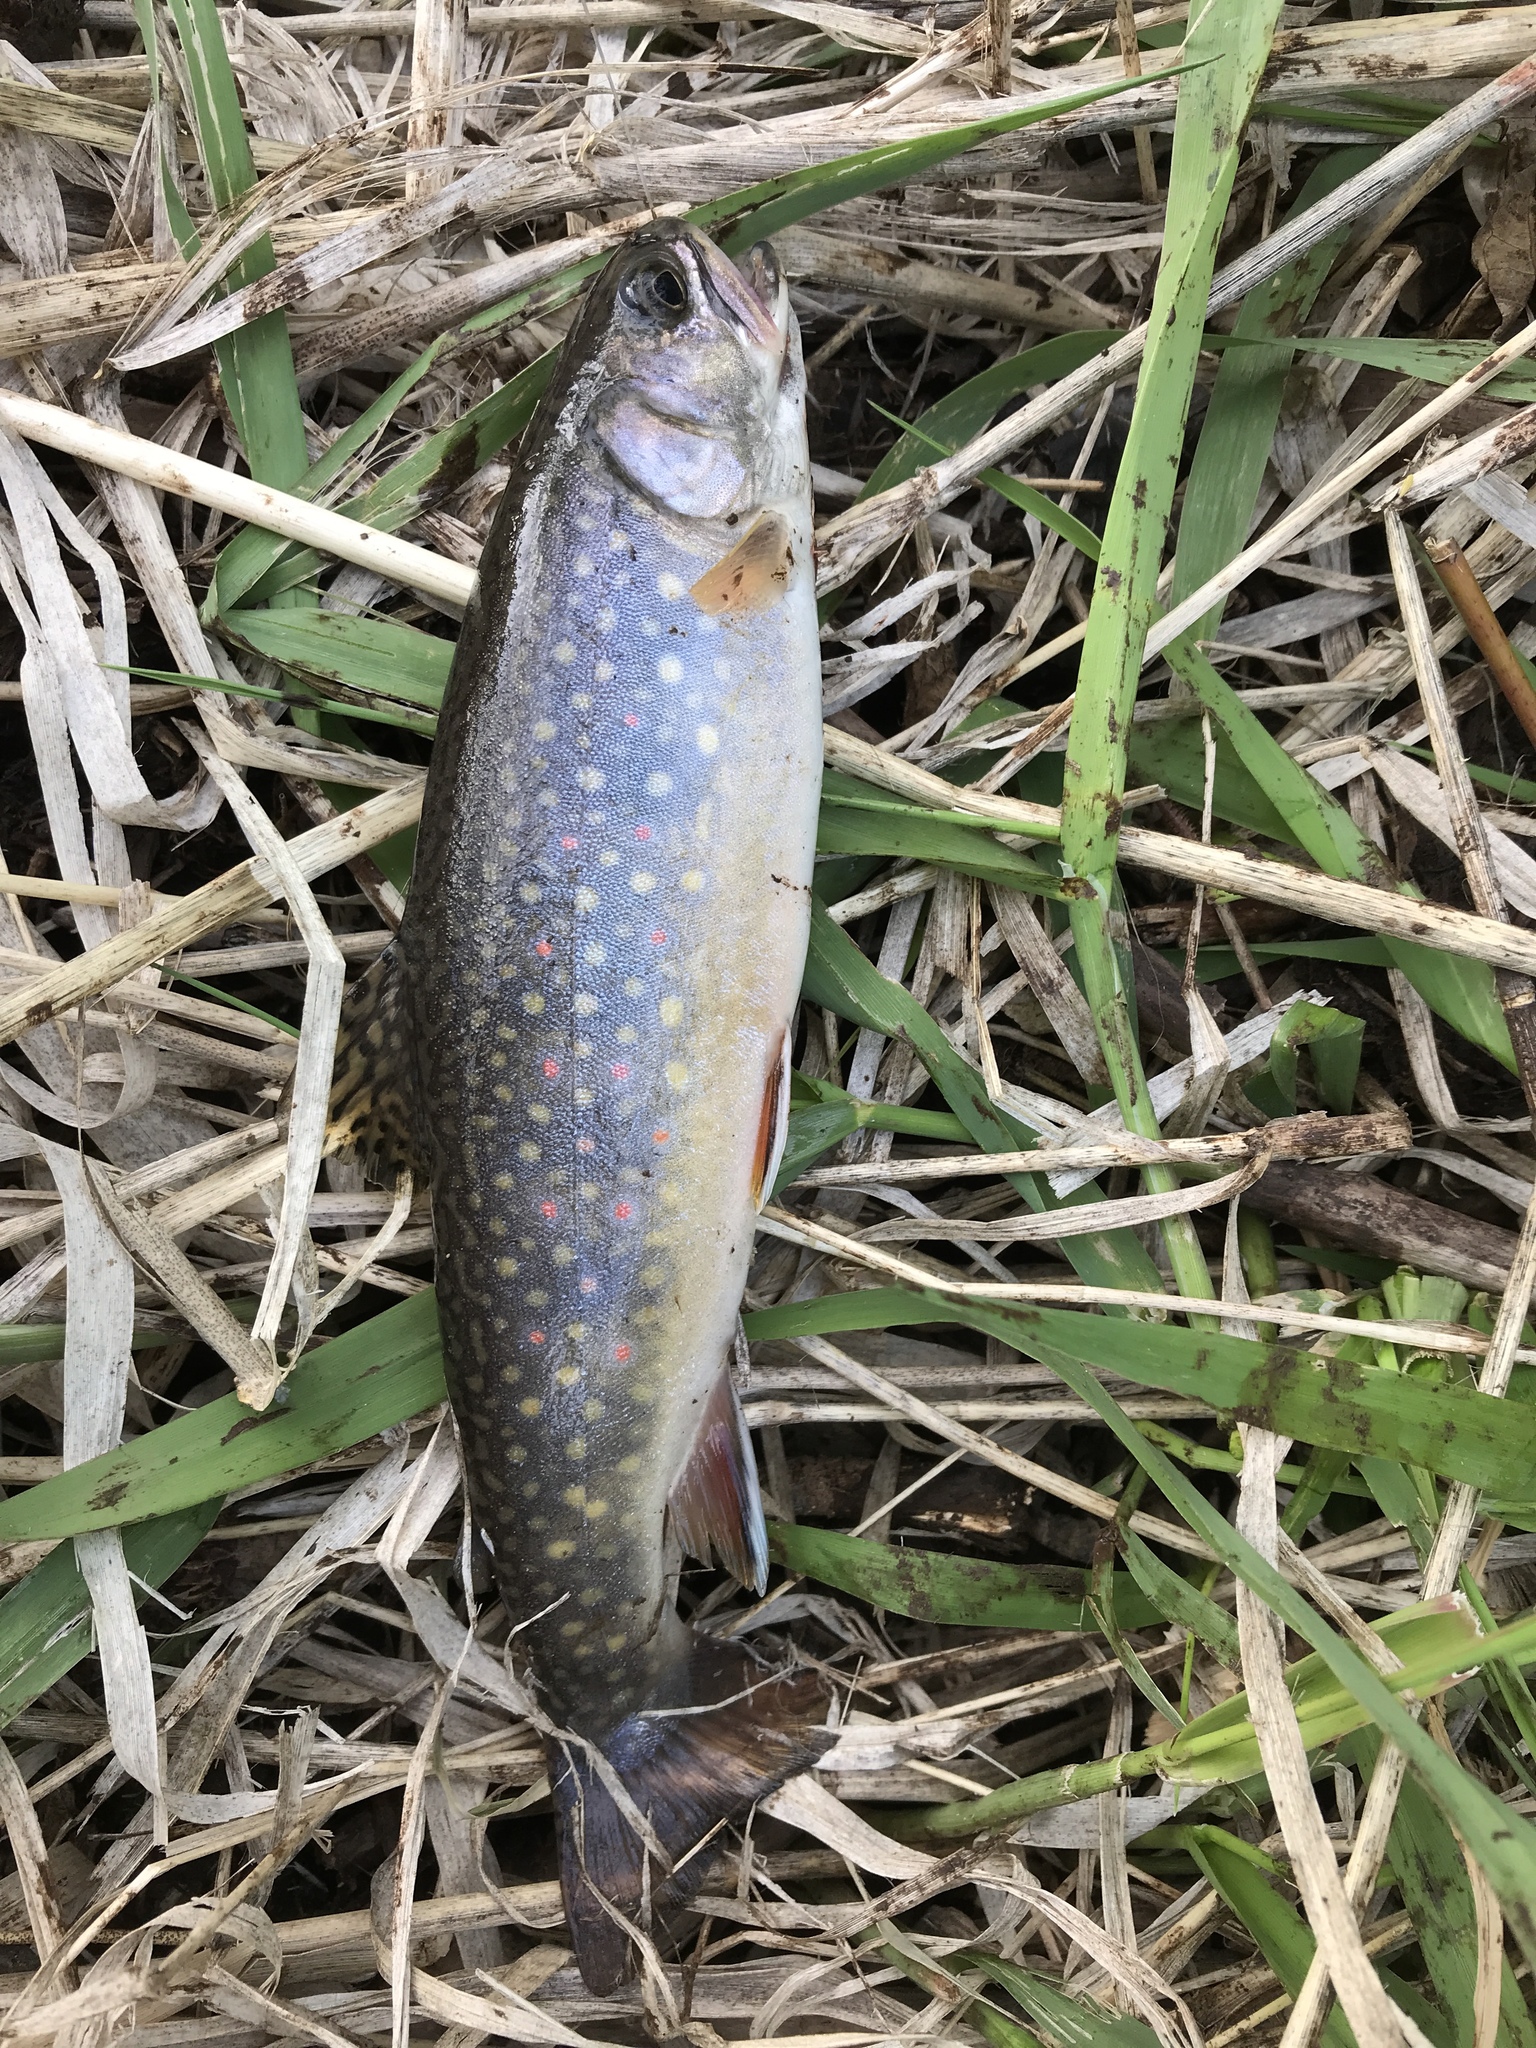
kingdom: Animalia
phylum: Chordata
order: Salmoniformes
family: Salmonidae
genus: Salvelinus
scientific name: Salvelinus fontinalis
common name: Brook trout
